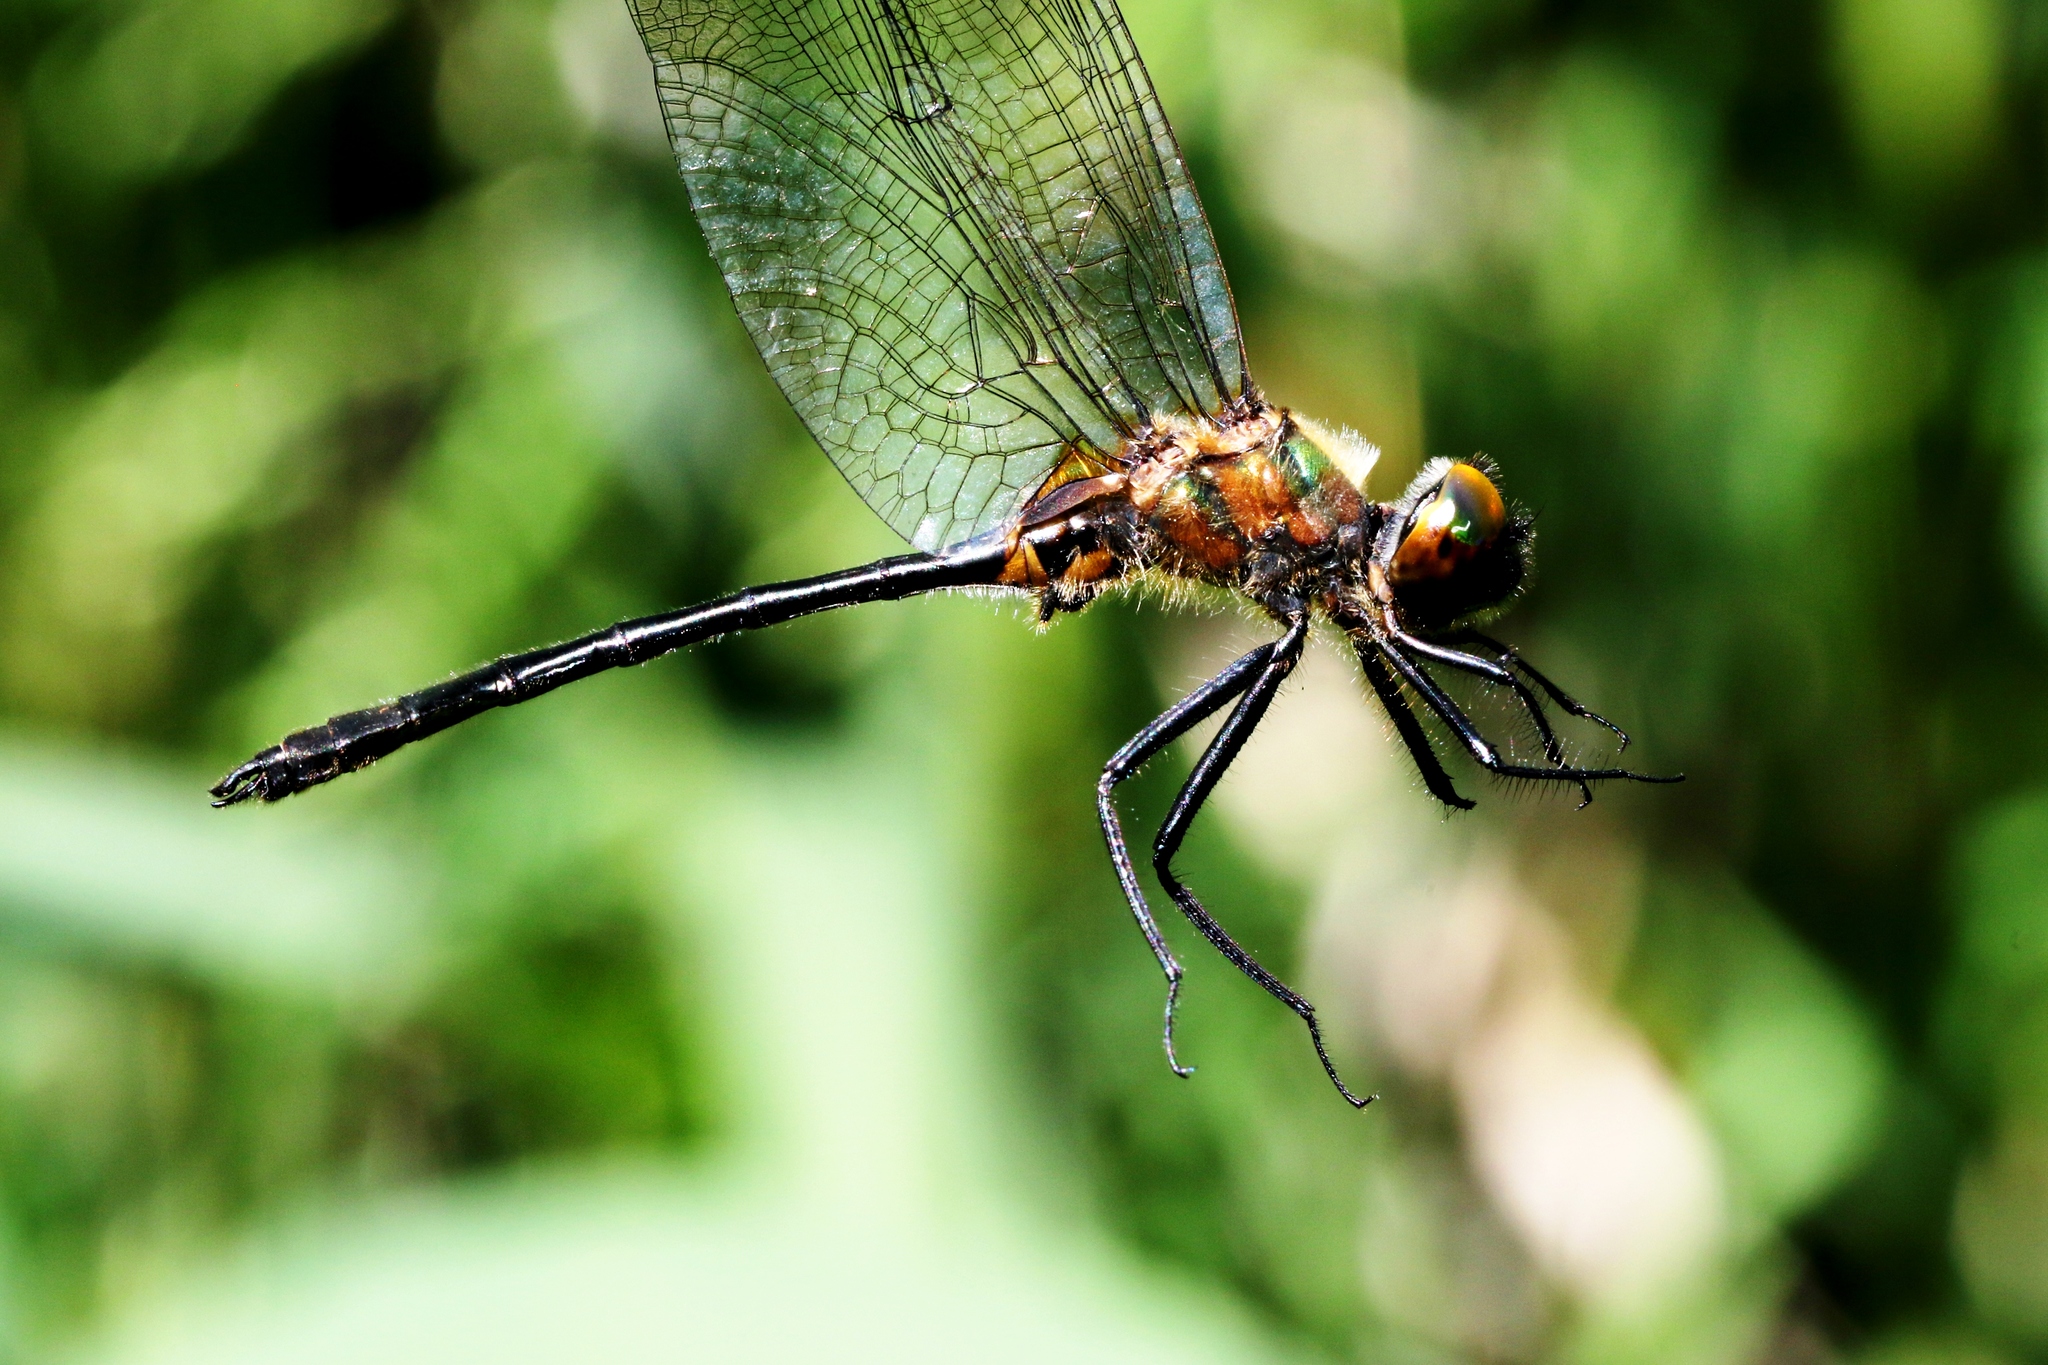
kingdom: Animalia
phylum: Arthropoda
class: Insecta
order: Odonata
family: Corduliidae
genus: Dorocordulia
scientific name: Dorocordulia libera
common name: Racket-tailed emerald
